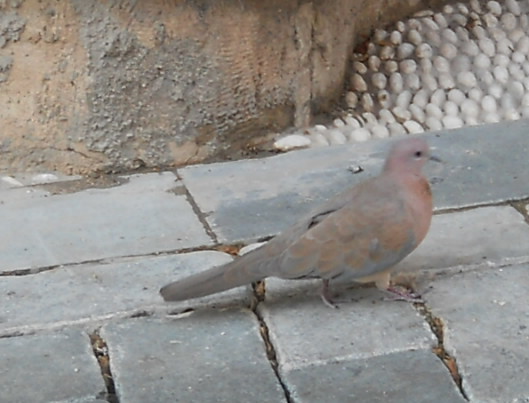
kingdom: Animalia
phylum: Chordata
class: Aves
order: Columbiformes
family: Columbidae
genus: Spilopelia
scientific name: Spilopelia senegalensis
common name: Laughing dove
